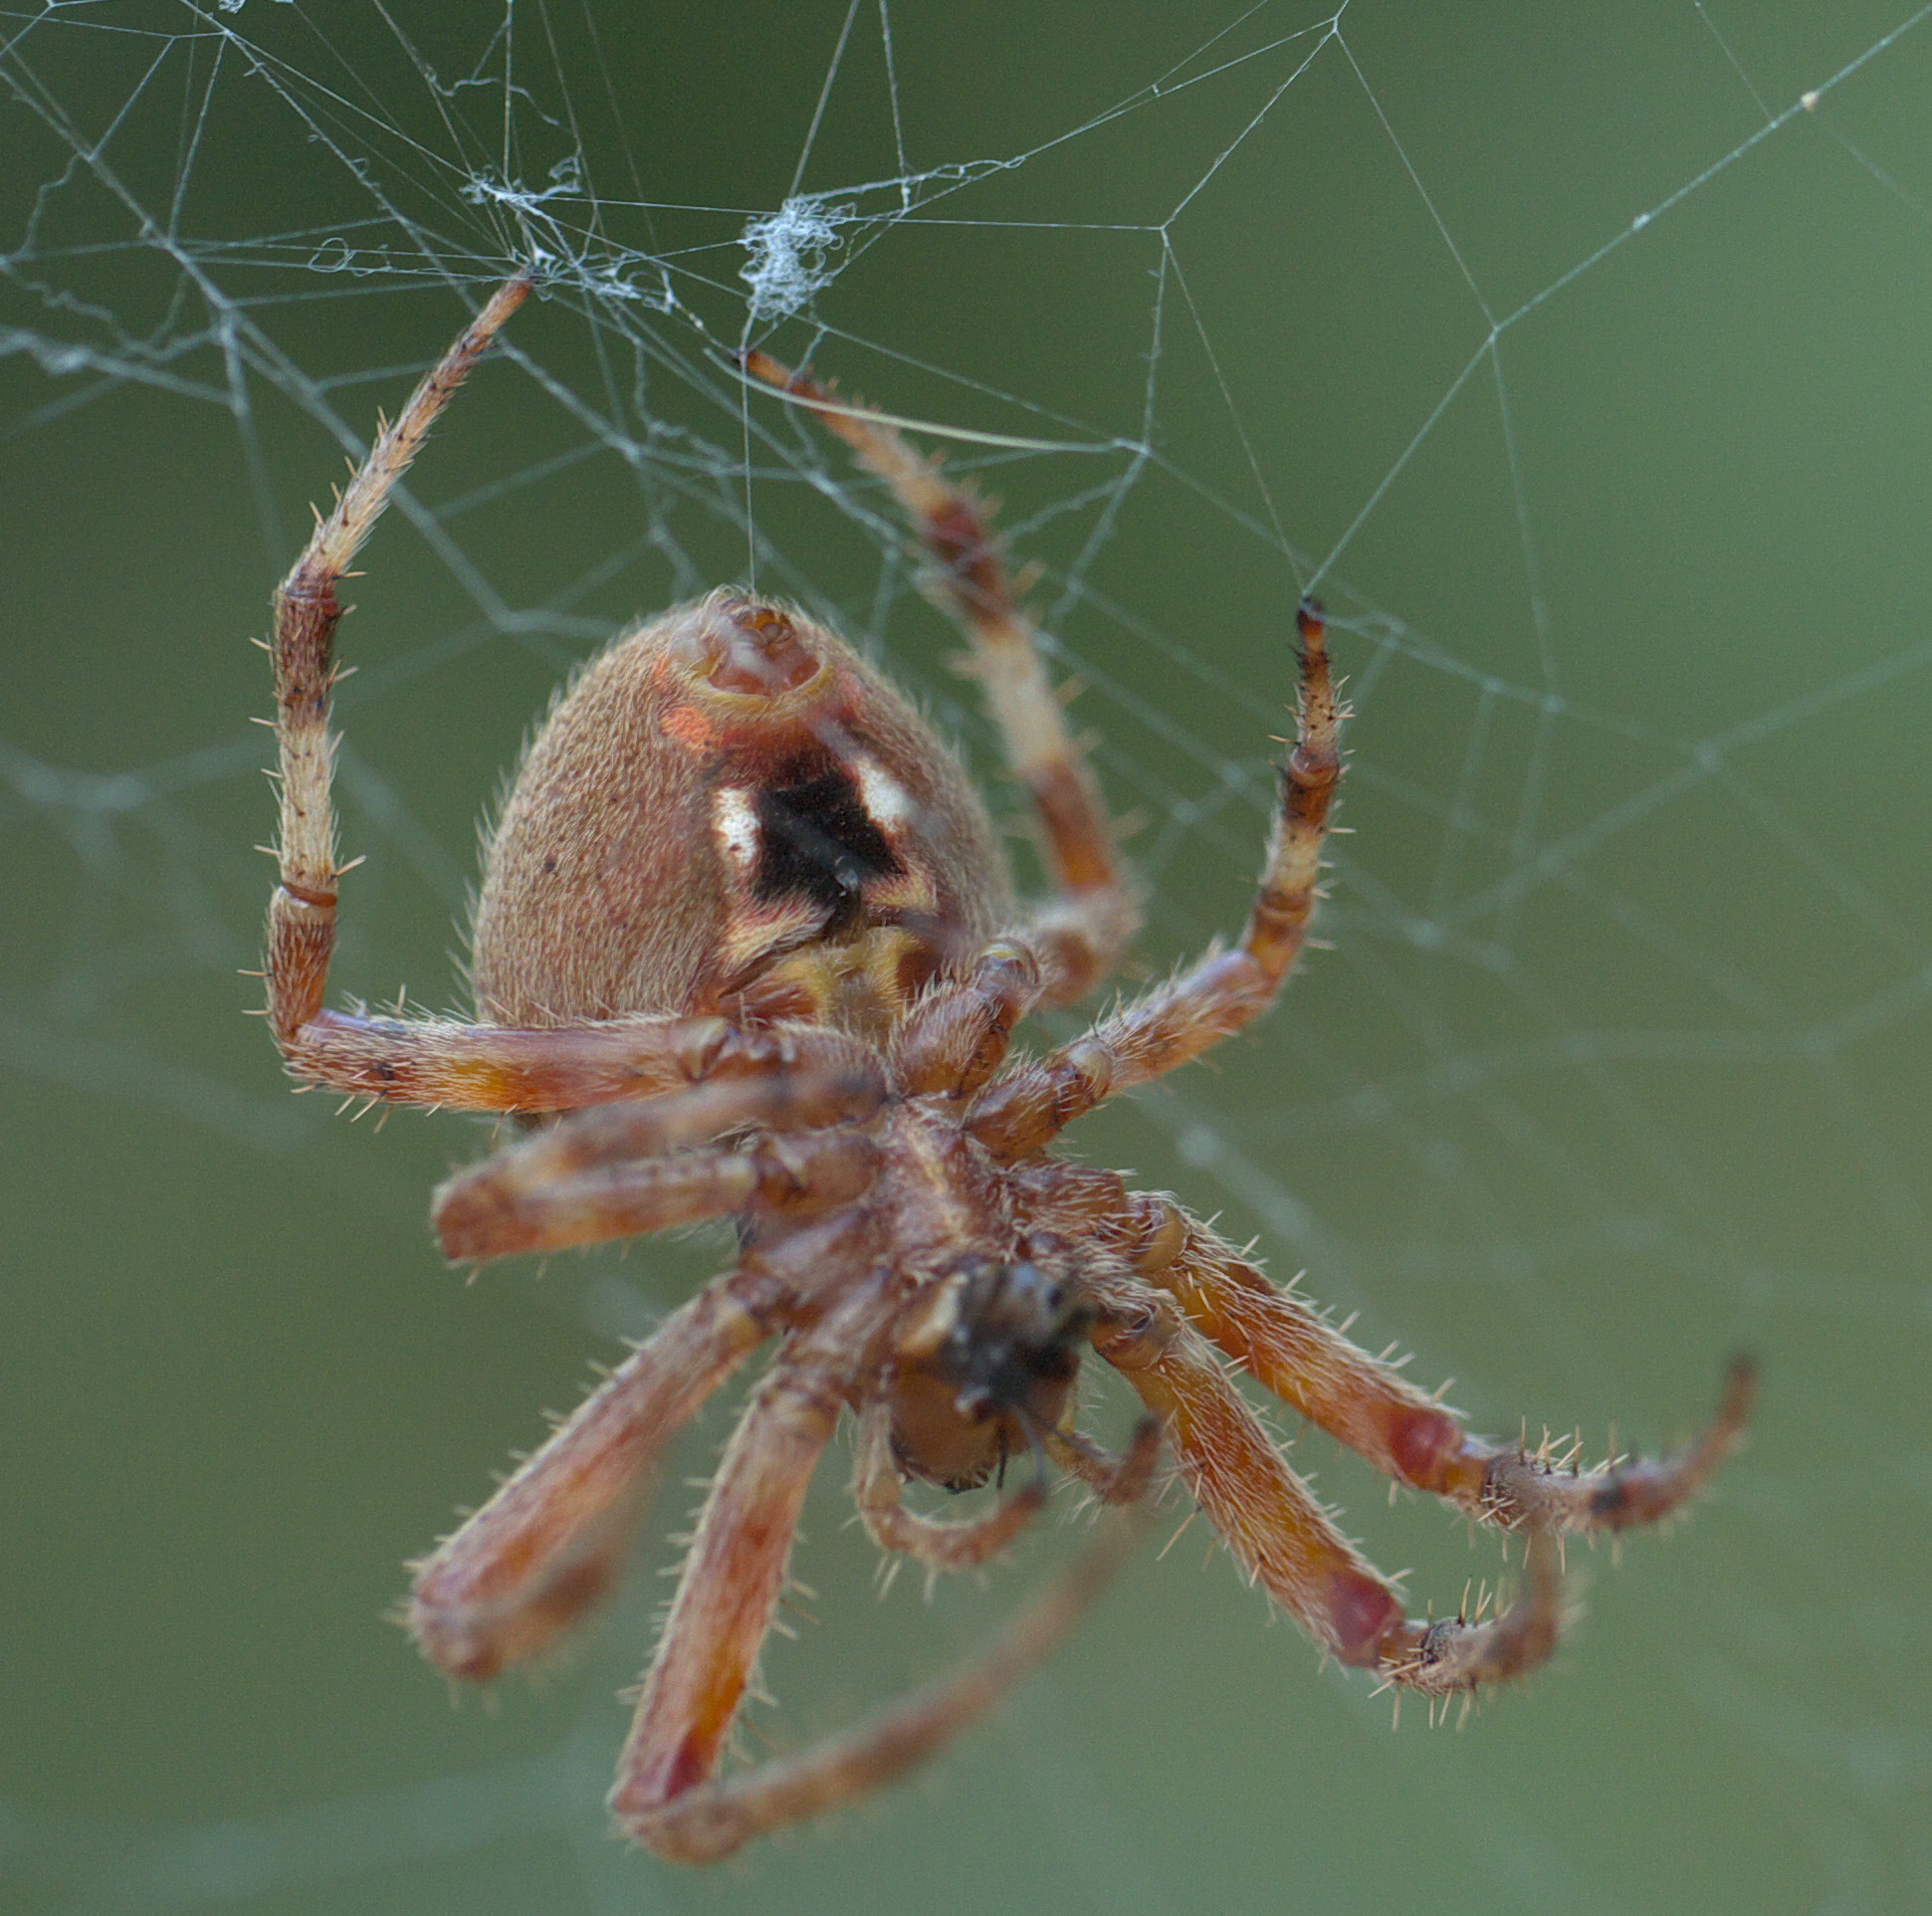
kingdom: Animalia
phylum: Arthropoda
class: Arachnida
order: Araneae
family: Araneidae
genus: Neoscona
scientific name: Neoscona crucifera
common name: Spotted orbweaver
